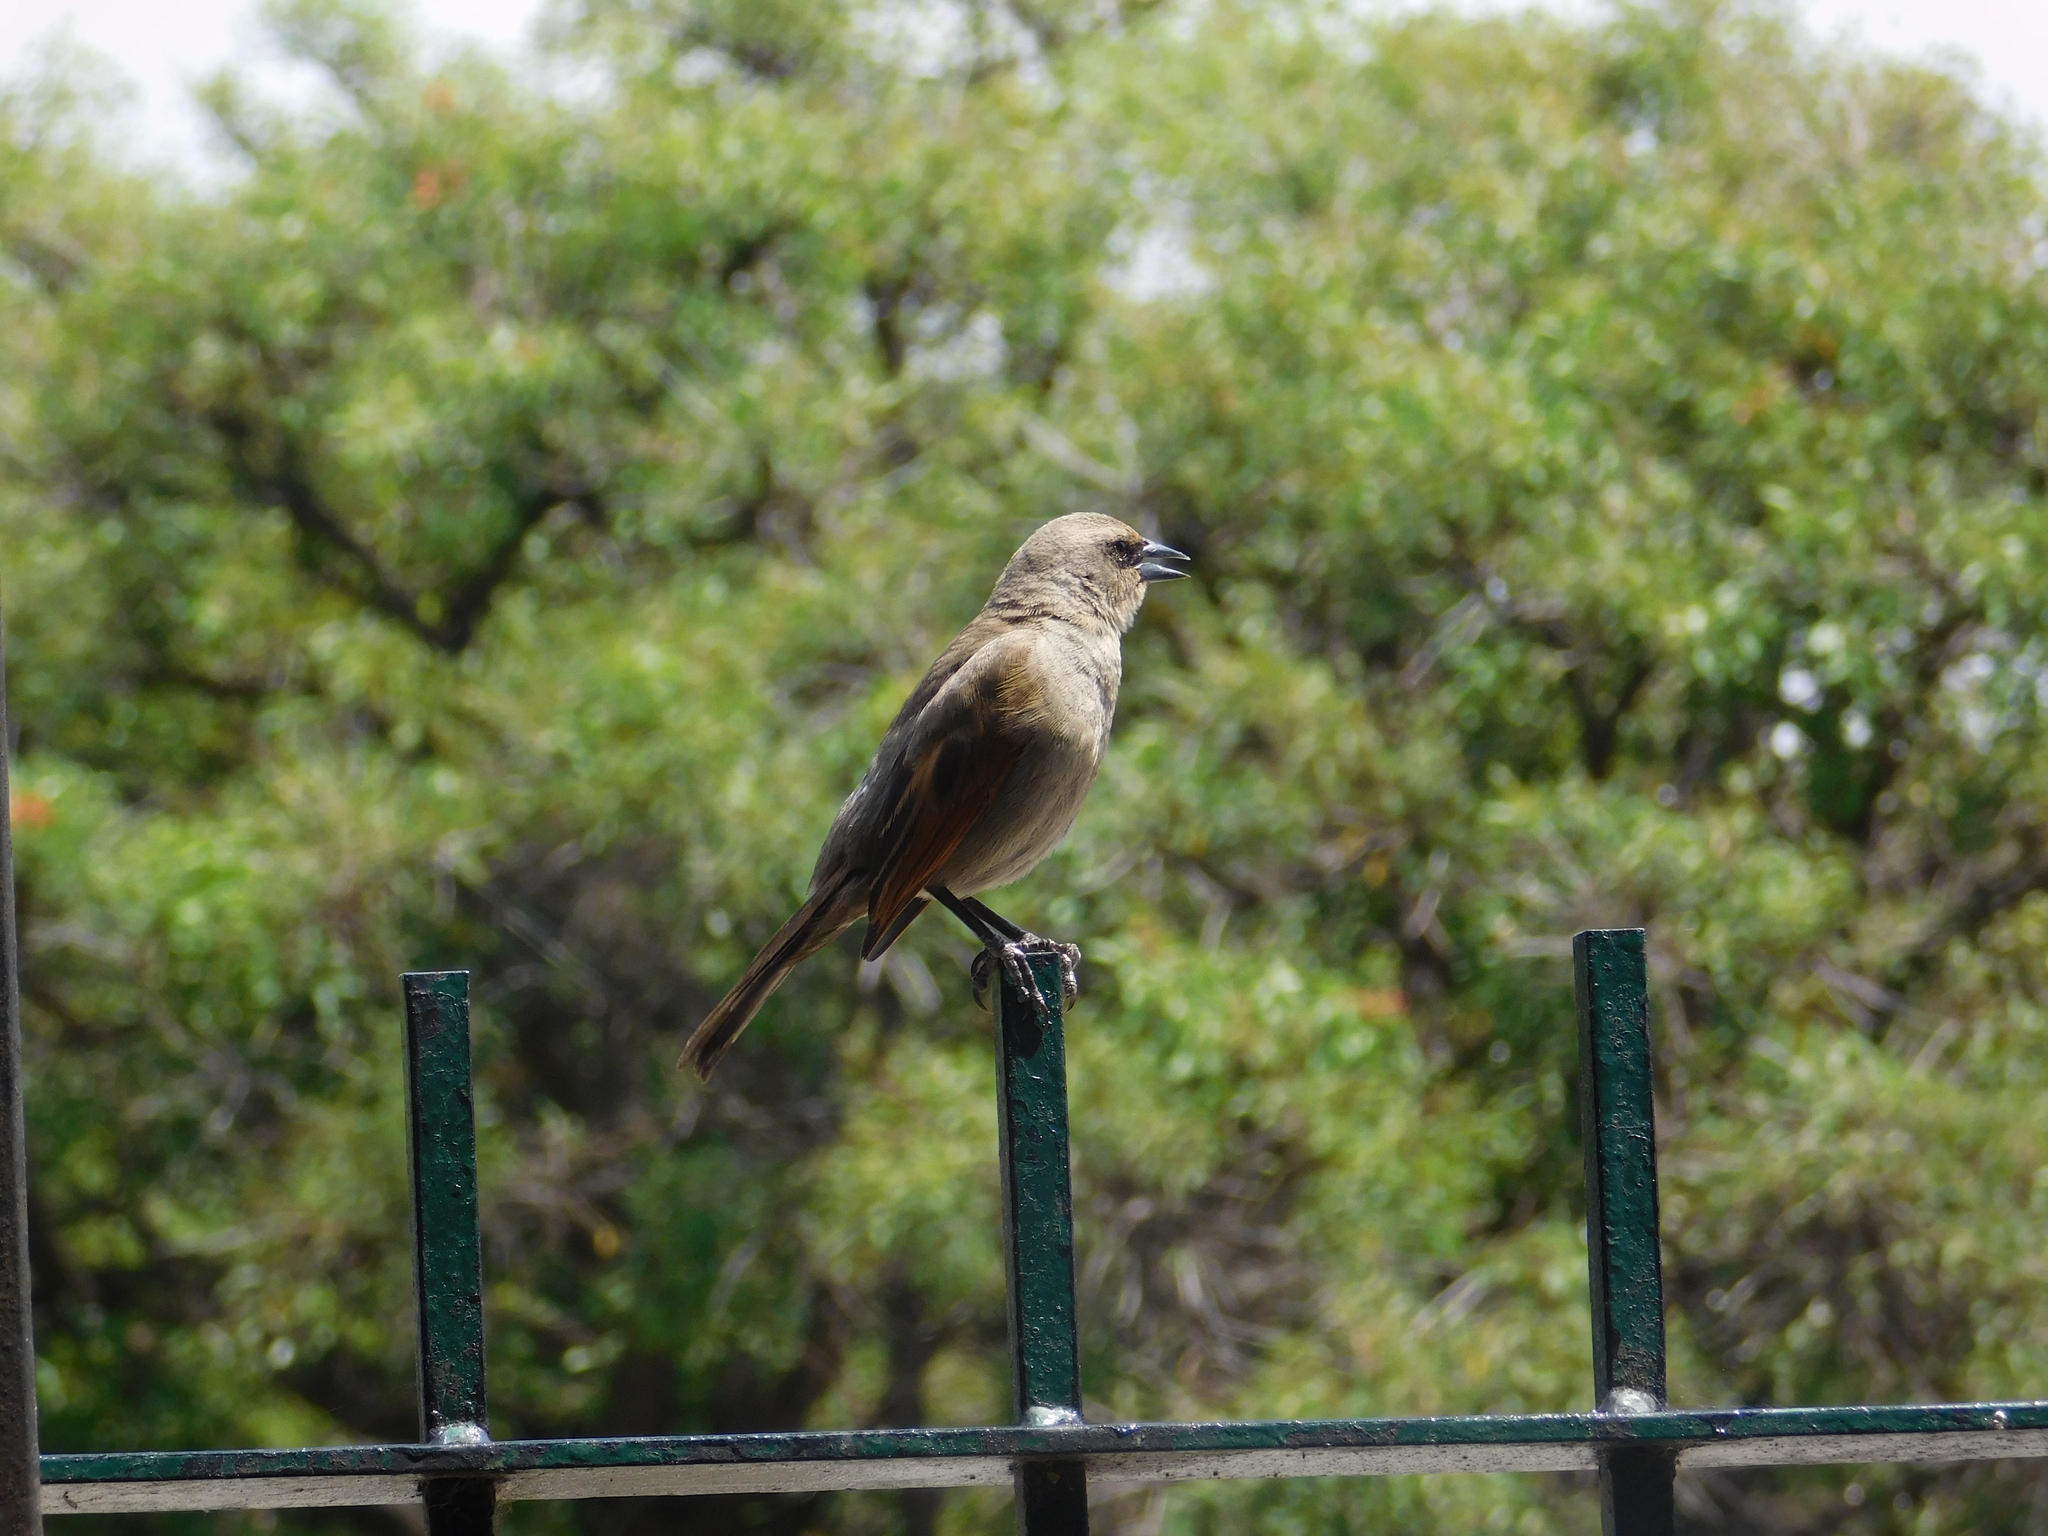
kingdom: Animalia
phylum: Chordata
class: Aves
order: Passeriformes
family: Icteridae
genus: Agelaioides
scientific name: Agelaioides badius
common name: Baywing
